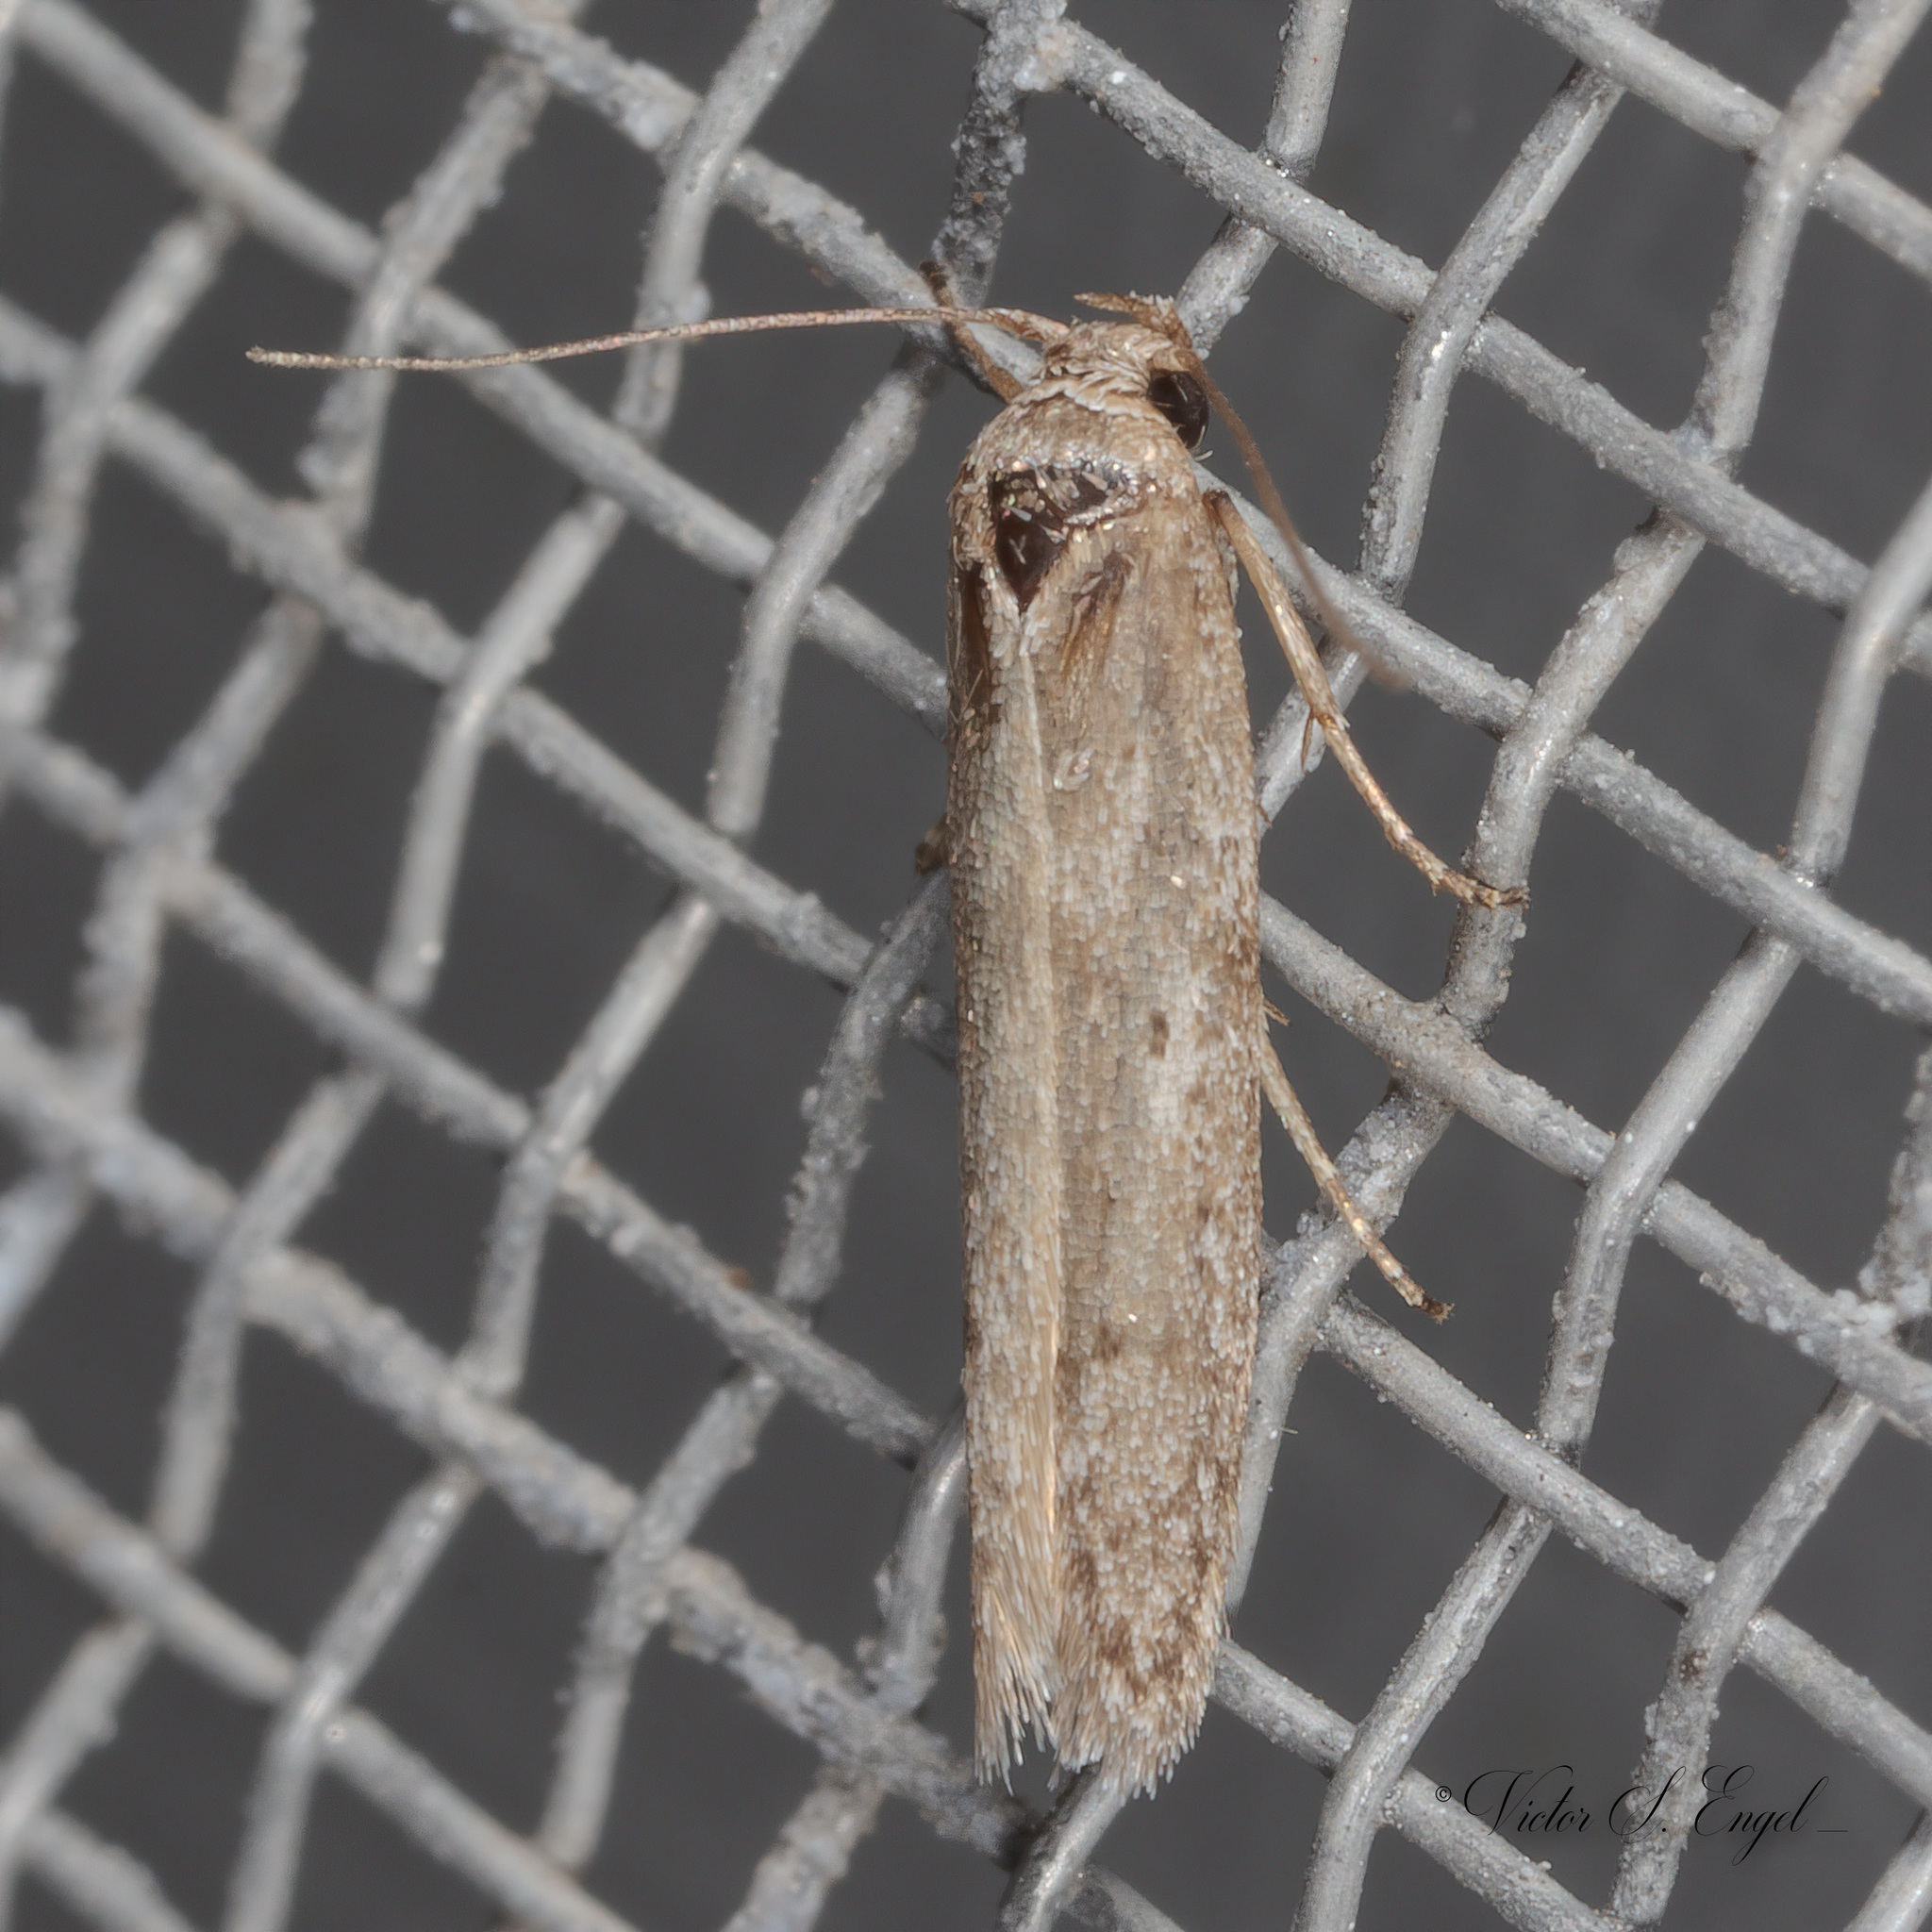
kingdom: Animalia
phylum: Arthropoda
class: Insecta
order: Lepidoptera
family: Pyralidae
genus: Homoeosoma
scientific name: Homoeosoma electella
